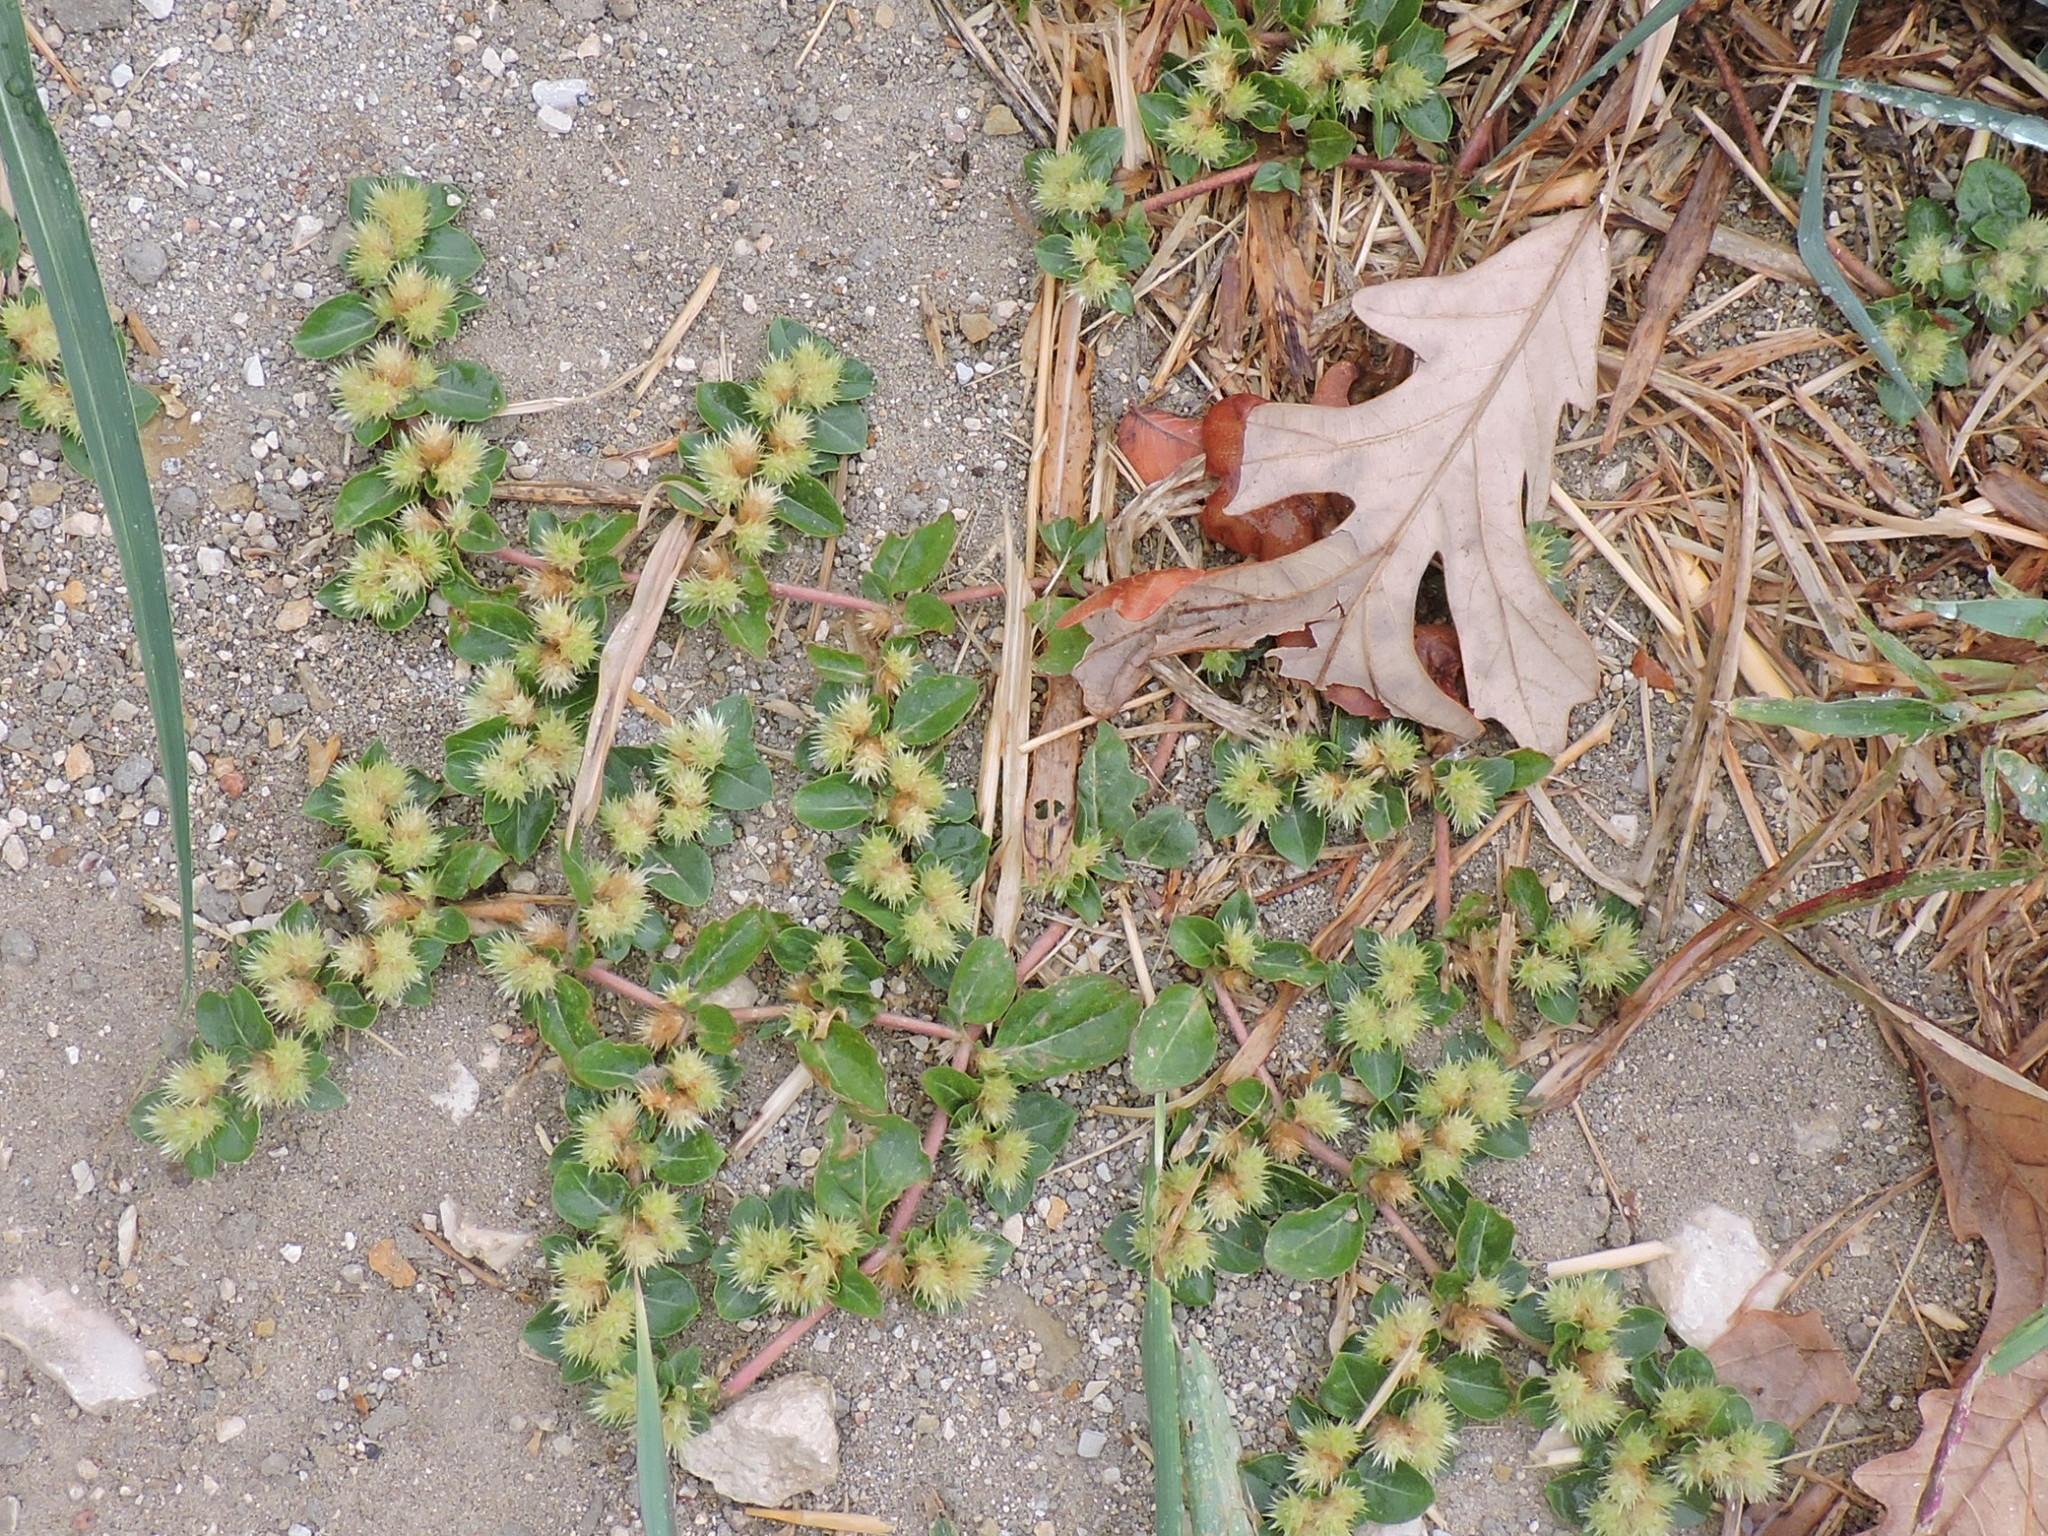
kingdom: Plantae
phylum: Tracheophyta
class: Magnoliopsida
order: Caryophyllales
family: Amaranthaceae
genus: Alternanthera
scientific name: Alternanthera pungens
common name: Khakiweed
